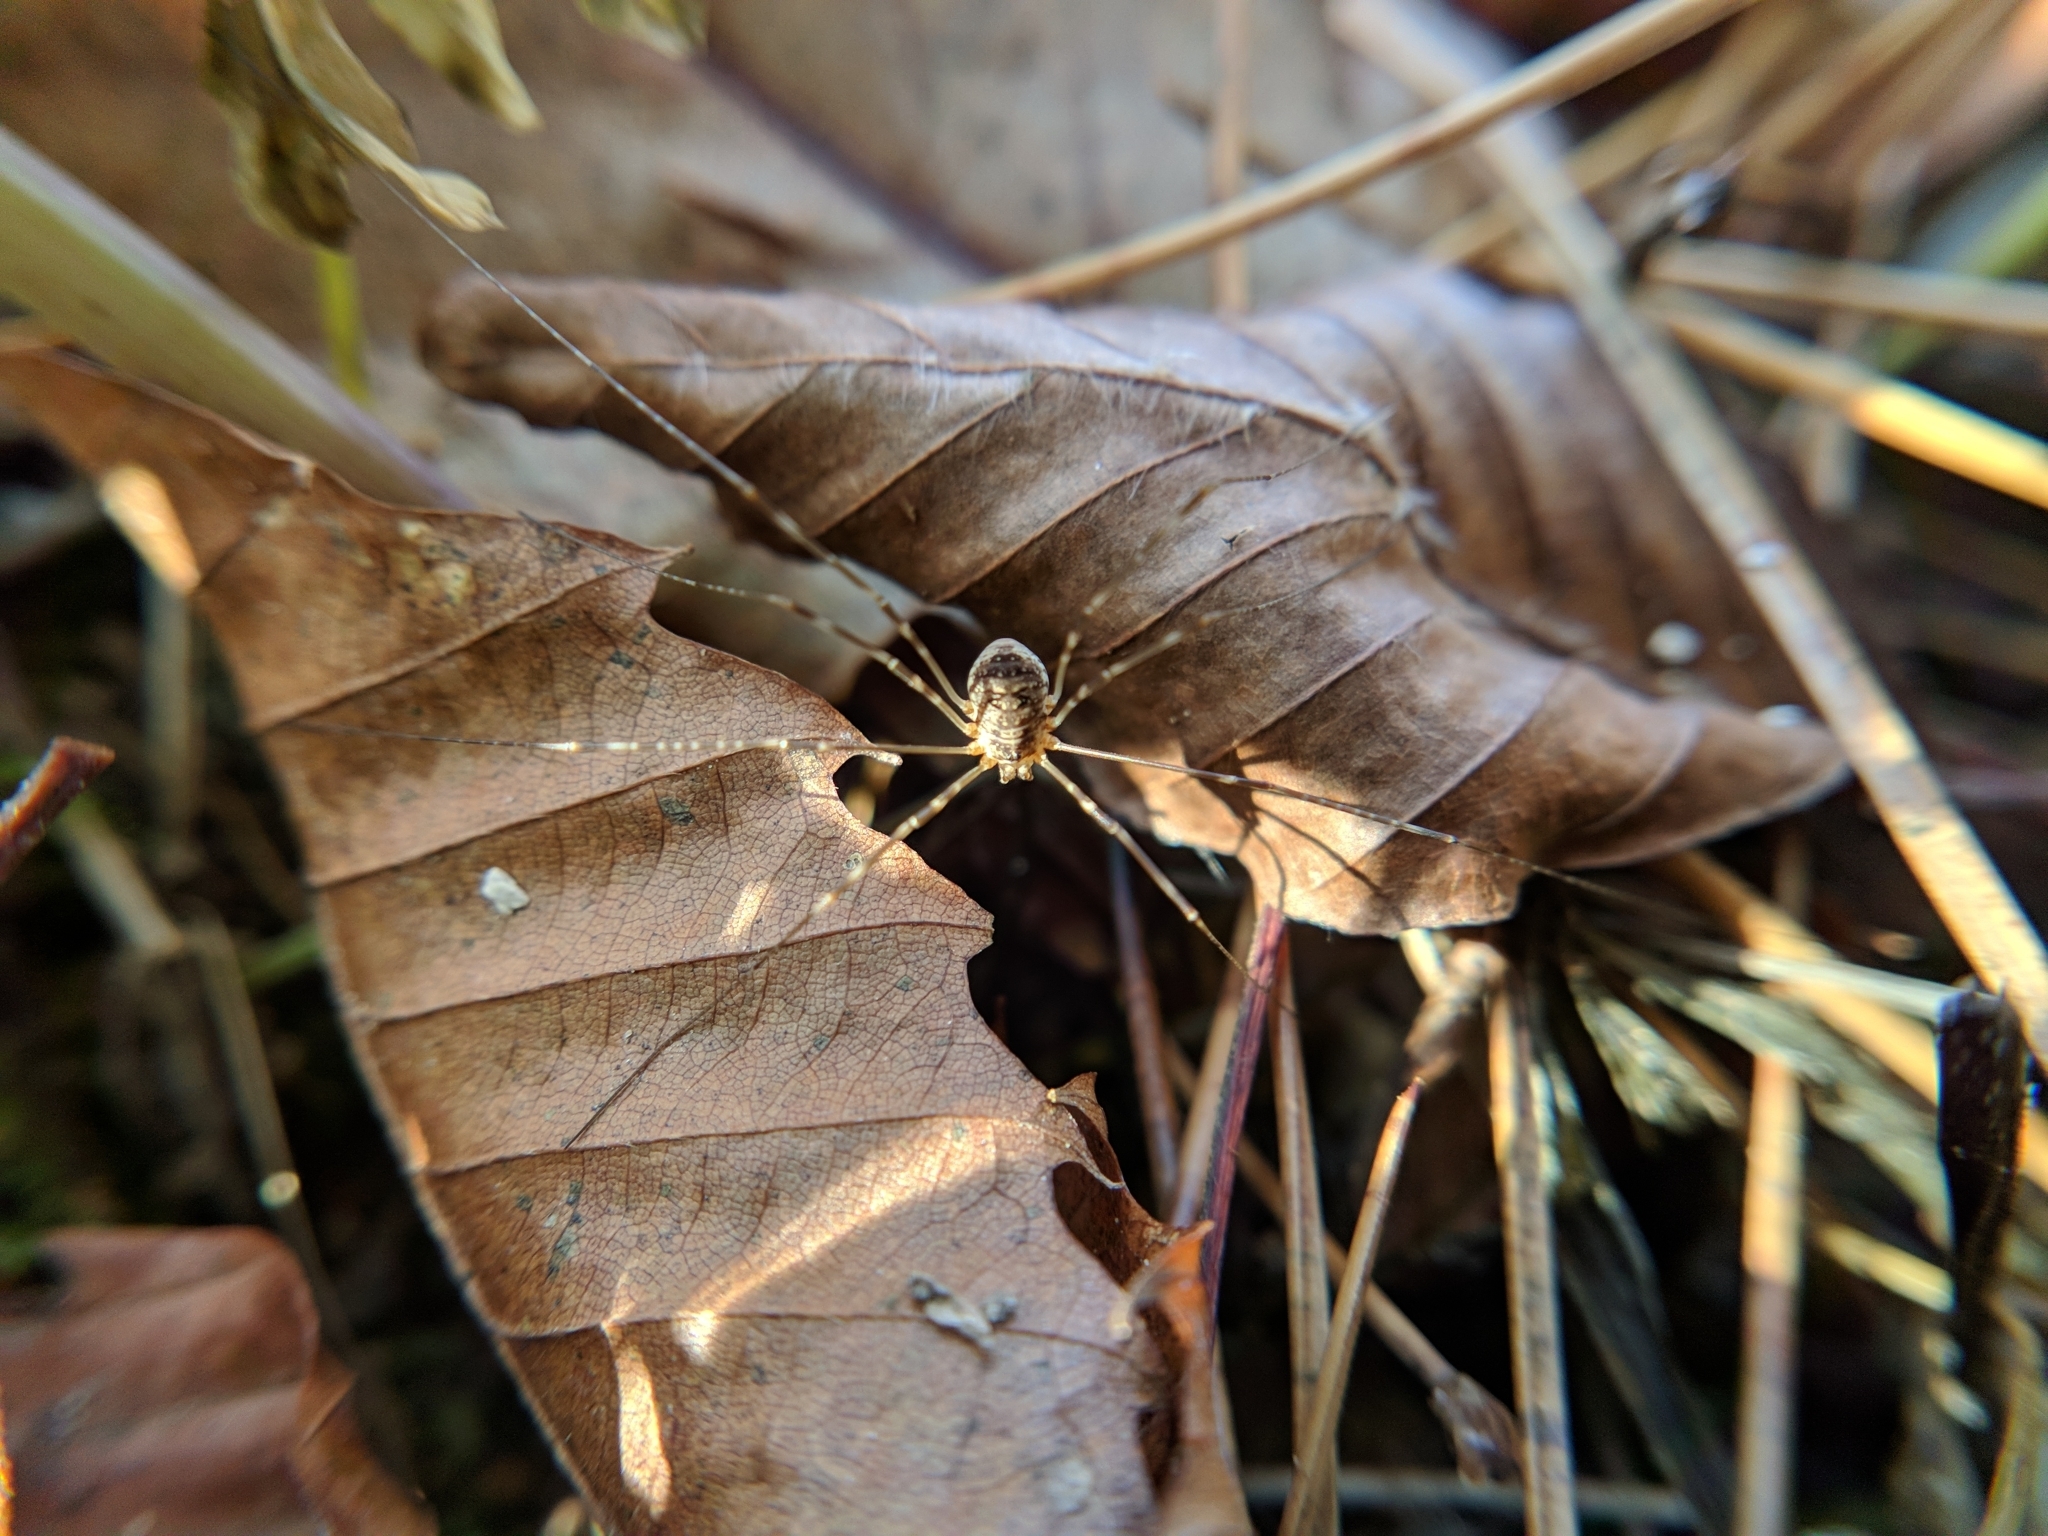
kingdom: Animalia
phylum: Arthropoda
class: Arachnida
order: Opiliones
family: Phalangiidae
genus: Amilenus
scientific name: Amilenus aurantiacus
